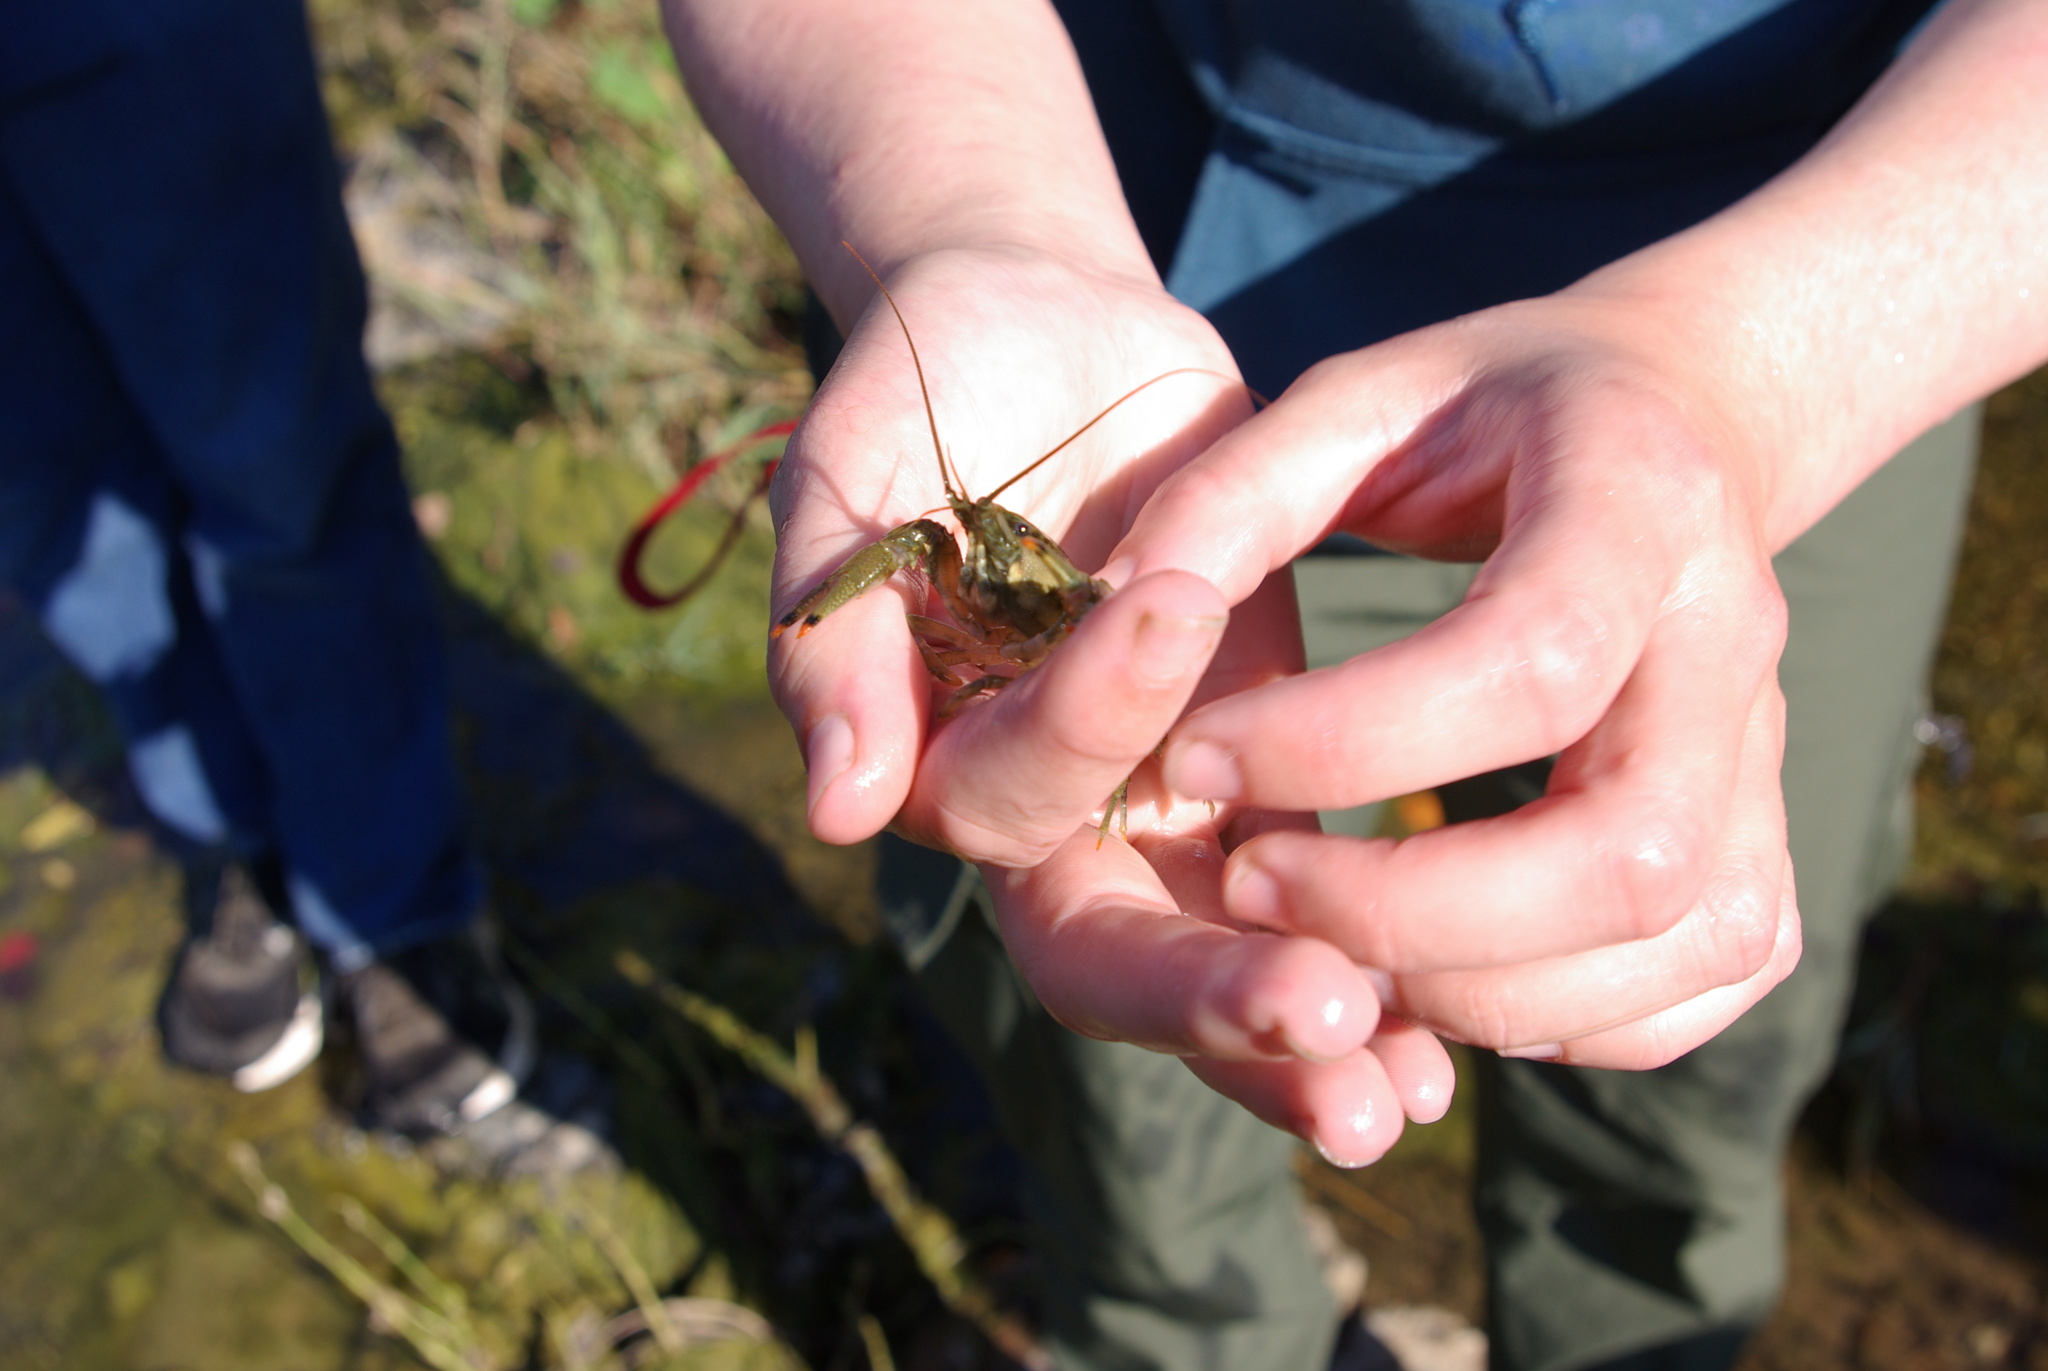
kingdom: Animalia
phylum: Arthropoda
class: Malacostraca
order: Decapoda
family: Cambaridae
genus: Faxonius
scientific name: Faxonius neglectus
